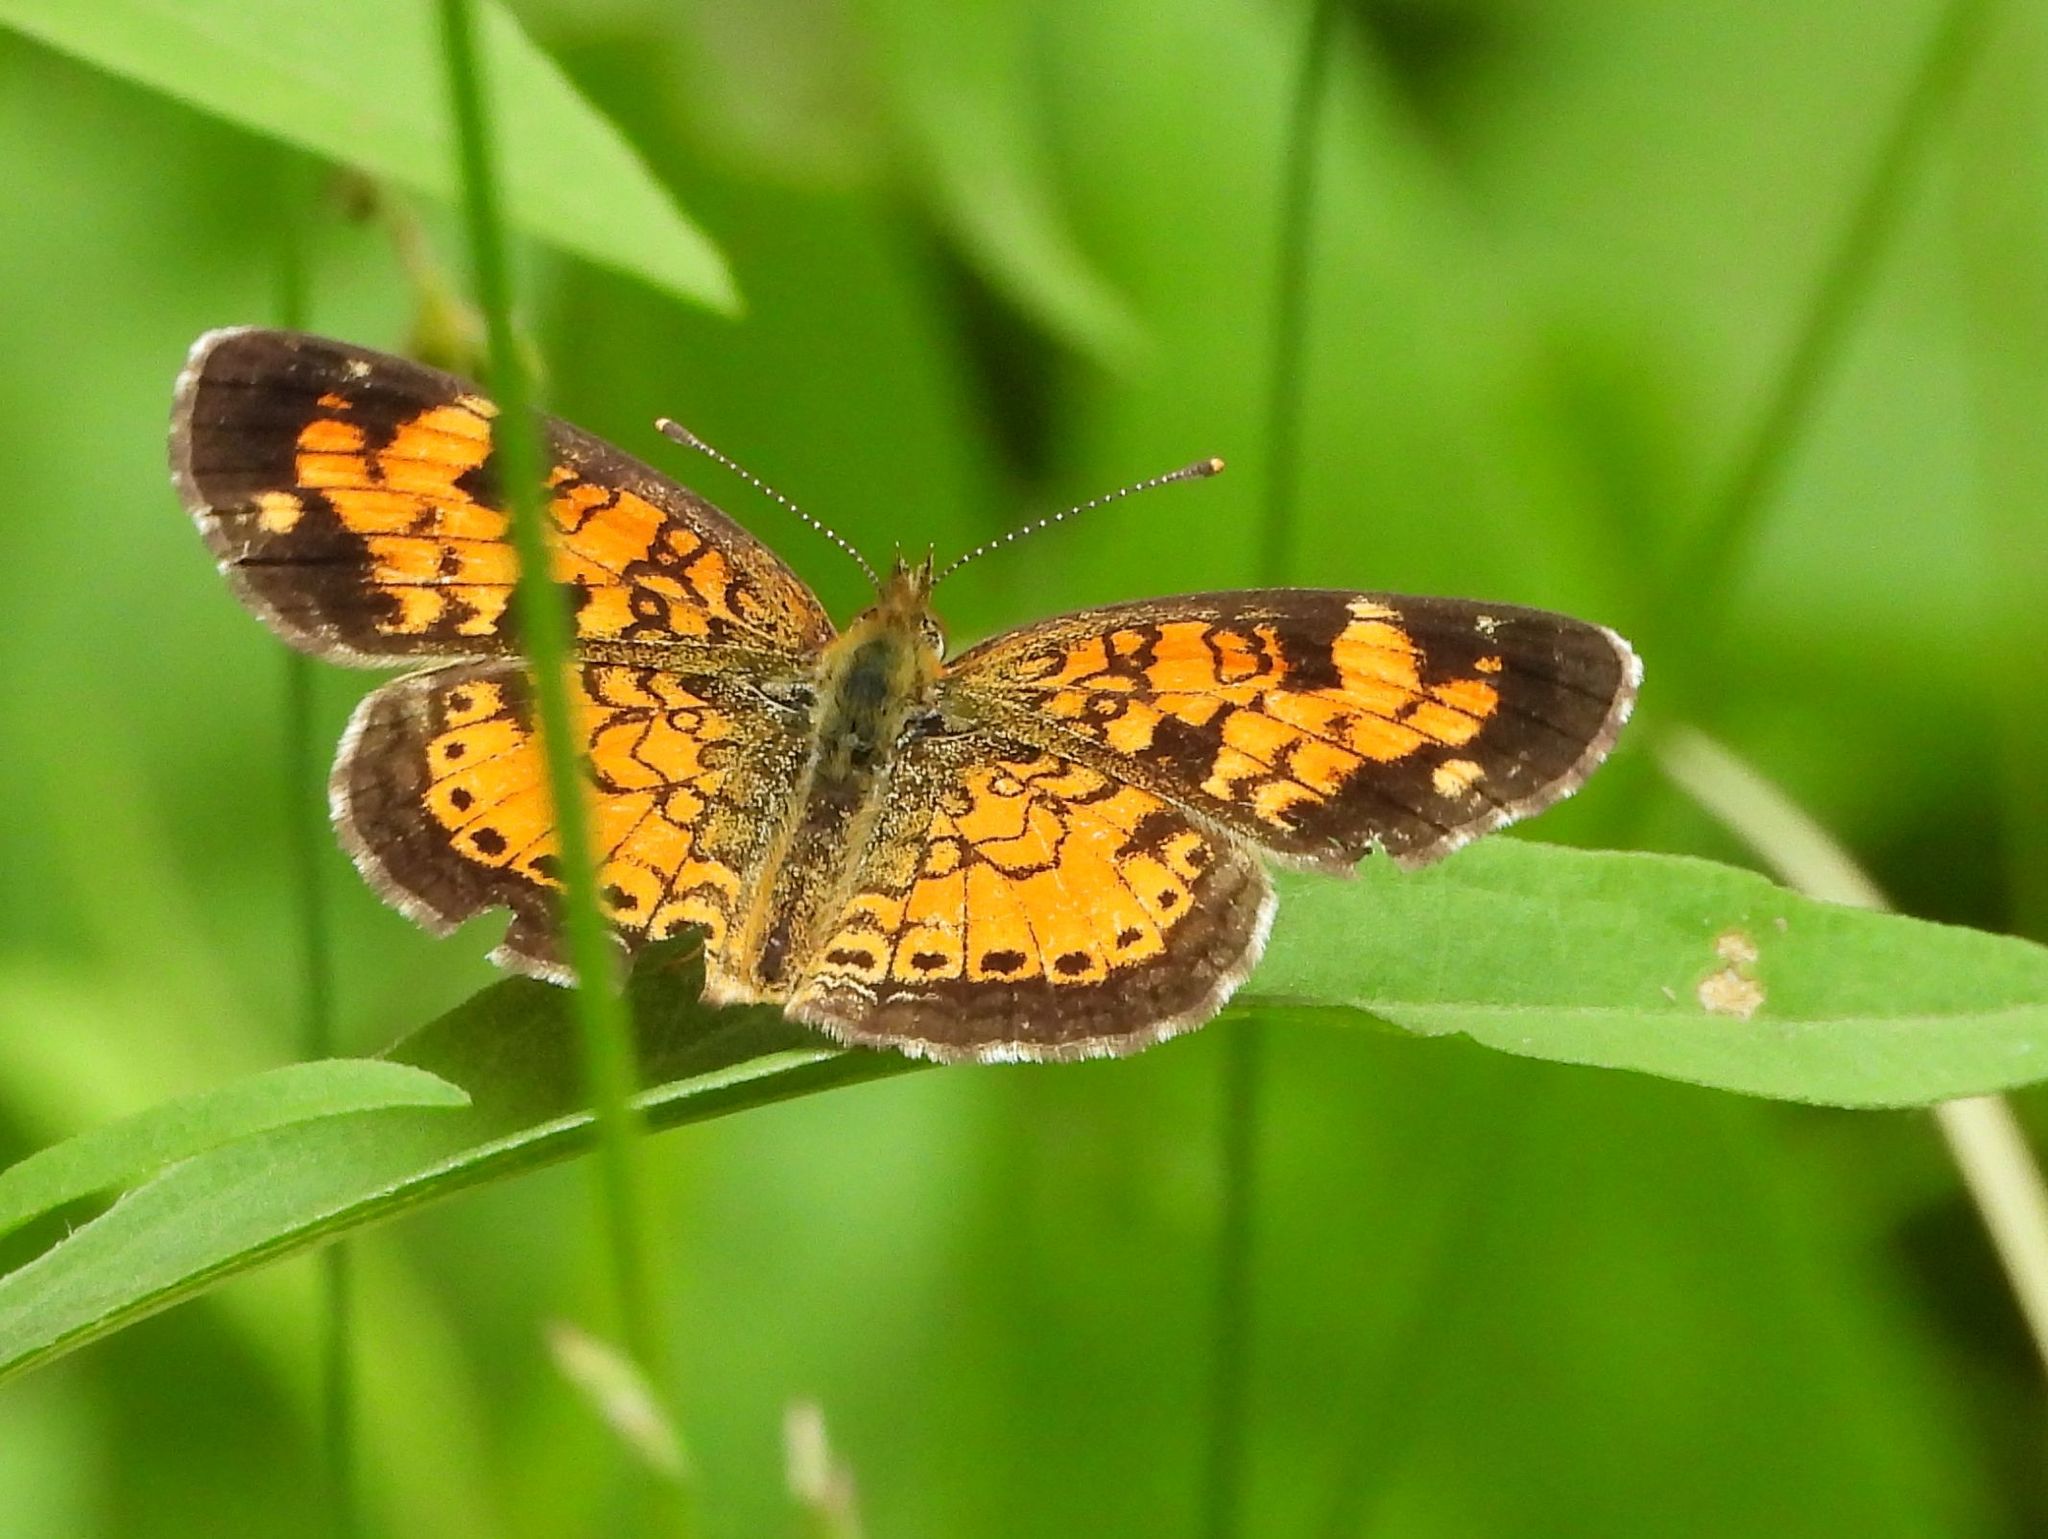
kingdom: Animalia
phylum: Arthropoda
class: Insecta
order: Lepidoptera
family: Nymphalidae
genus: Phyciodes
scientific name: Phyciodes tharos
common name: Pearl crescent
